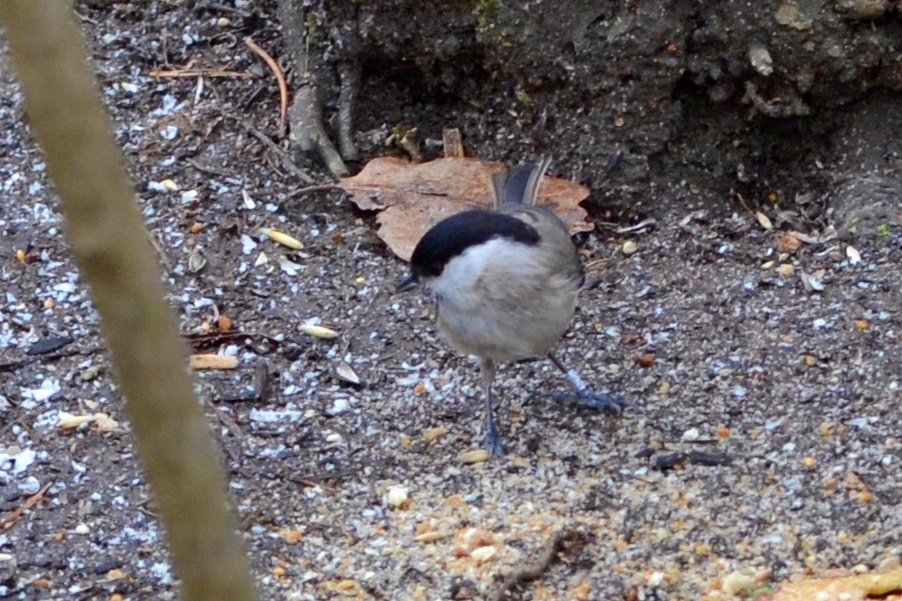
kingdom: Animalia
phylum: Chordata
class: Aves
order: Passeriformes
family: Paridae
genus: Poecile
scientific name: Poecile palustris
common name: Marsh tit
